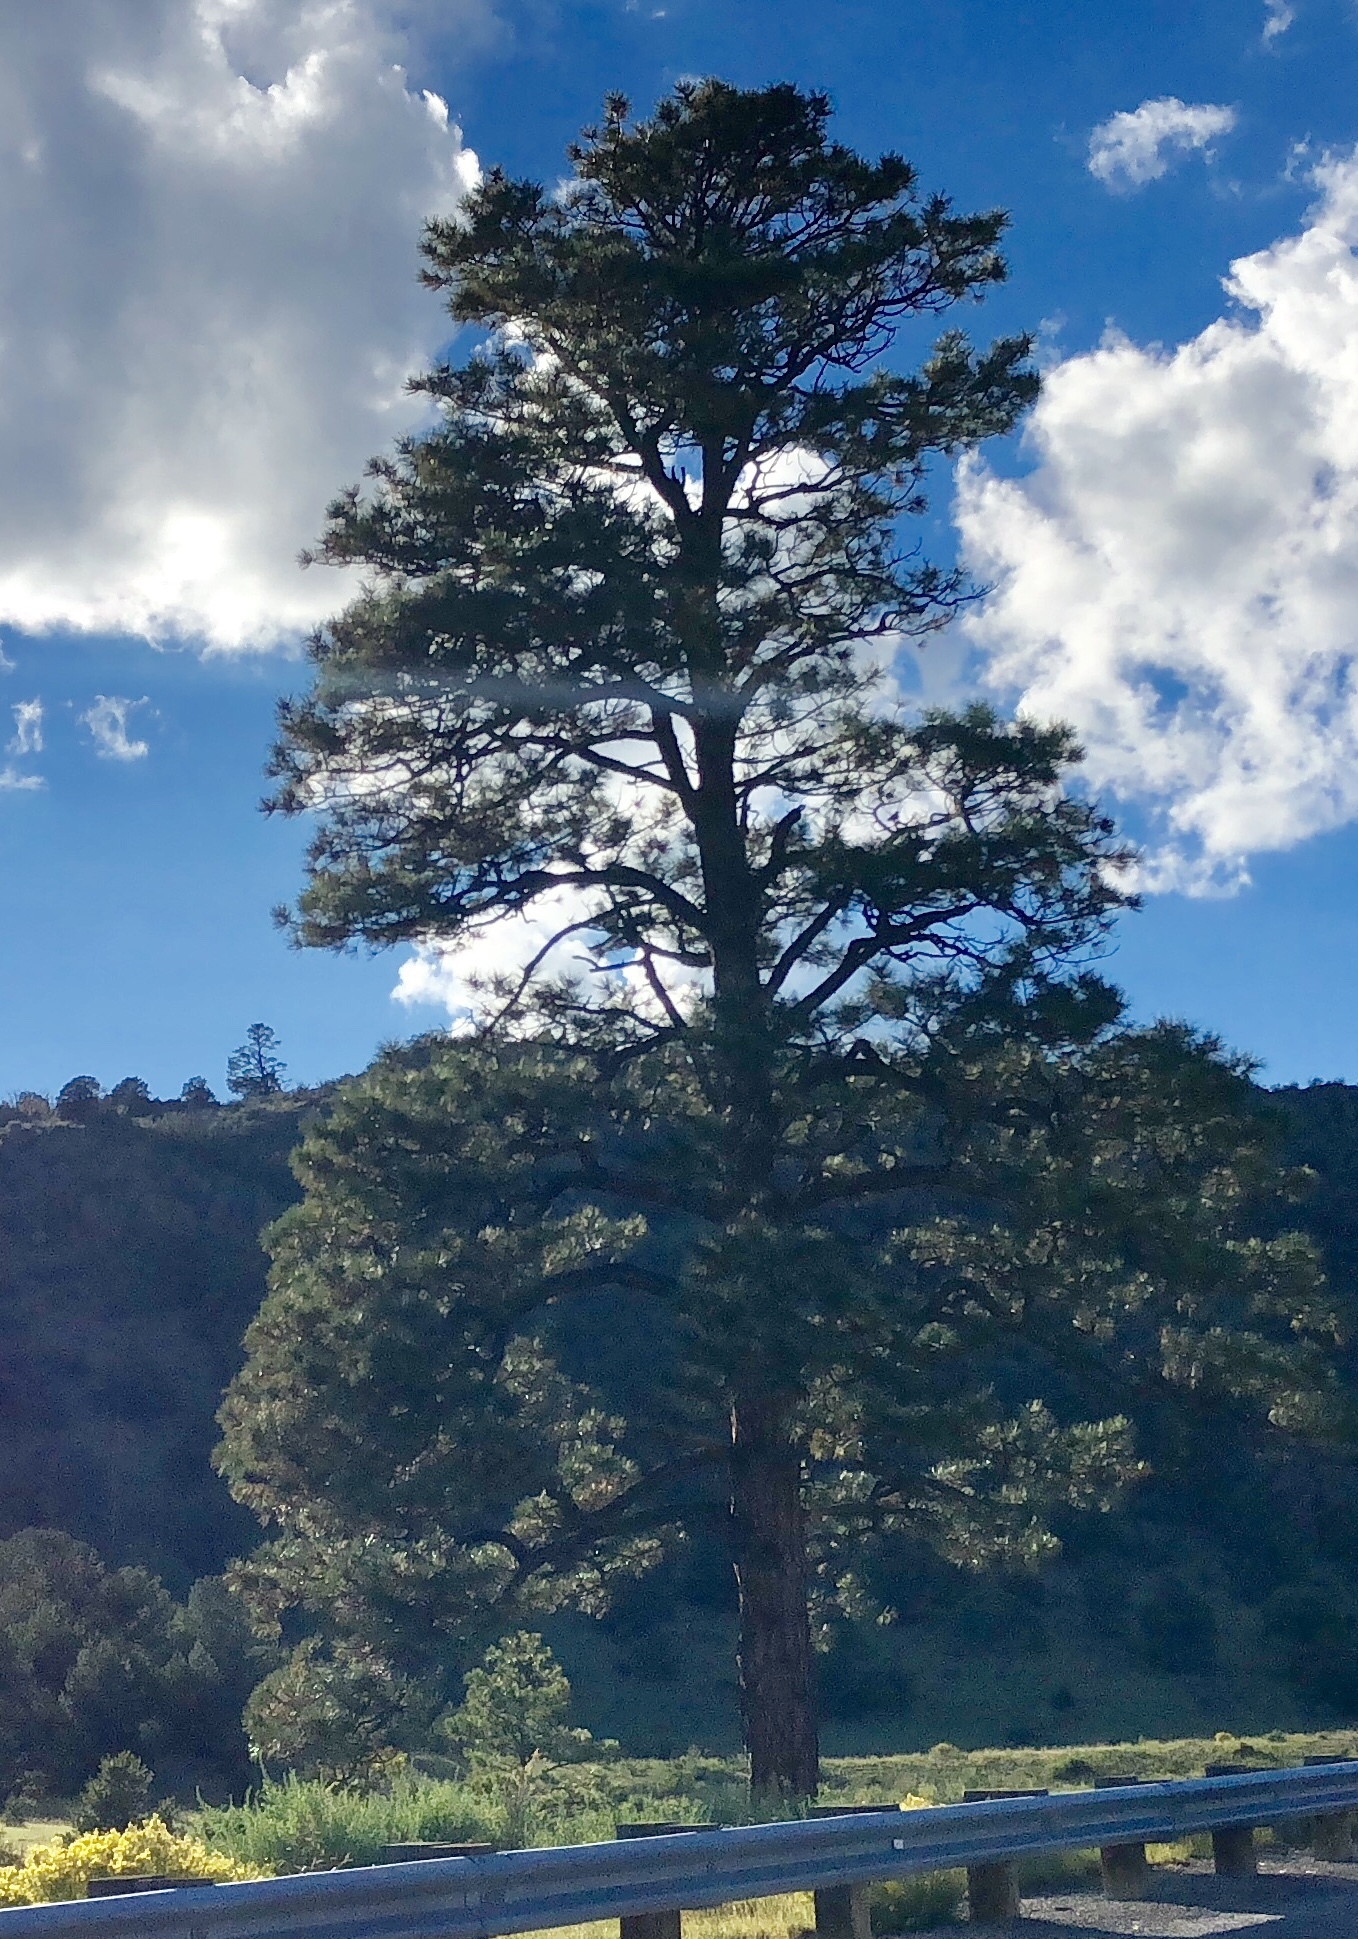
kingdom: Plantae
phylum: Tracheophyta
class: Pinopsida
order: Pinales
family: Pinaceae
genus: Pinus
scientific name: Pinus ponderosa
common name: Western yellow-pine
